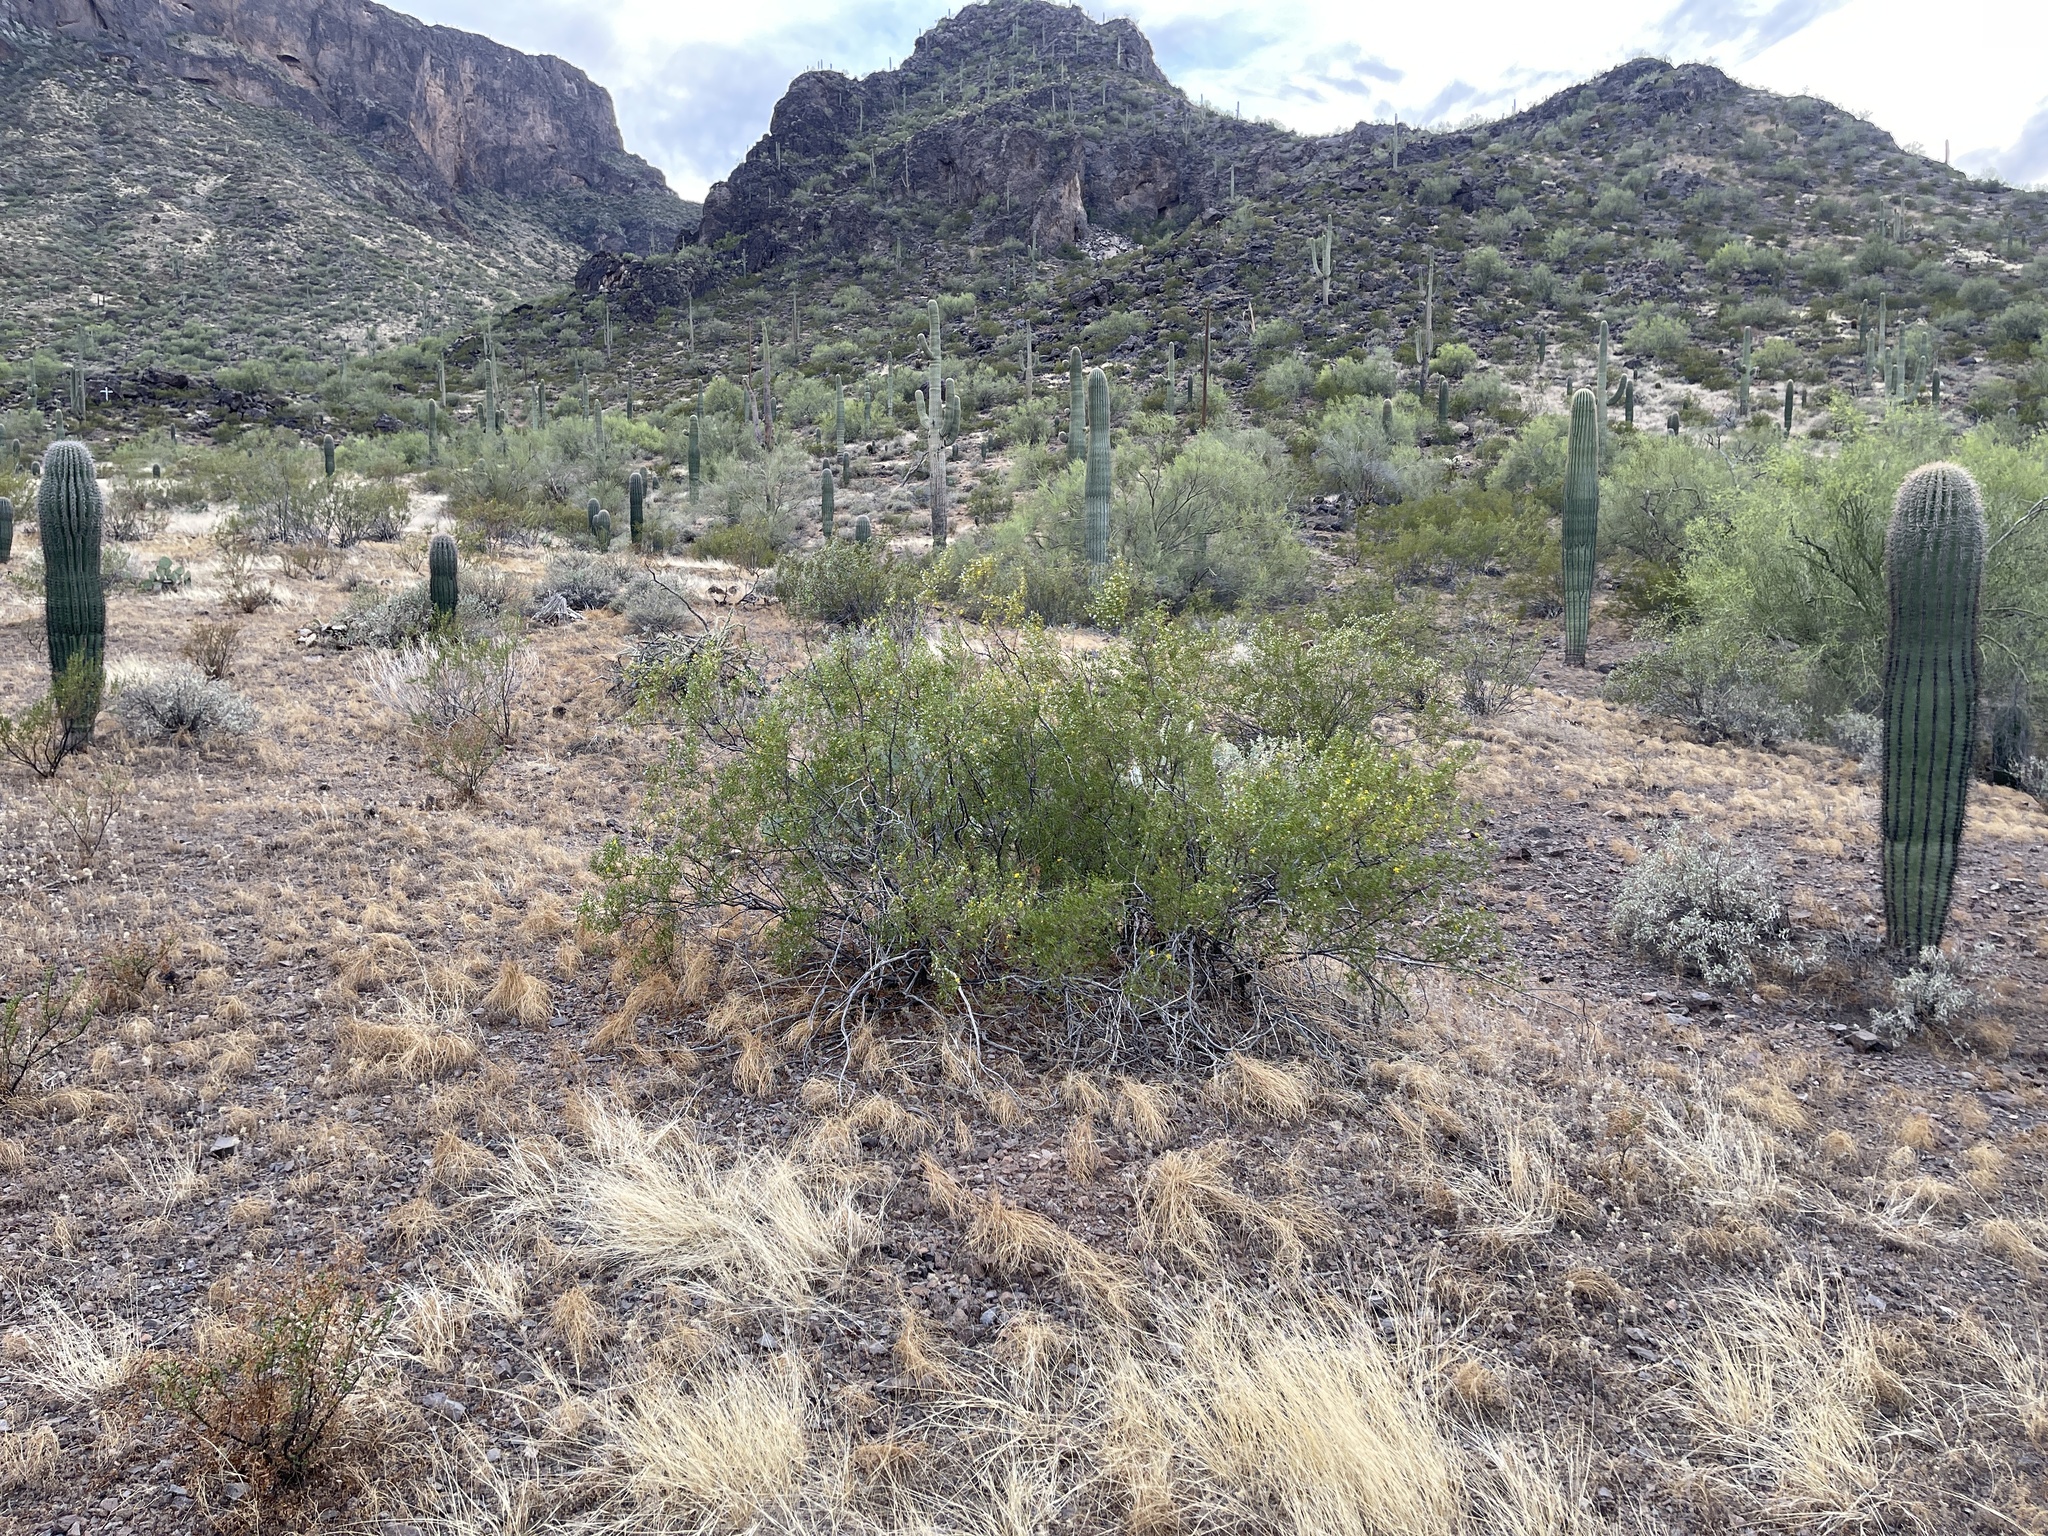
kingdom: Plantae
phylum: Tracheophyta
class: Magnoliopsida
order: Zygophyllales
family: Zygophyllaceae
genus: Larrea
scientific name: Larrea tridentata
